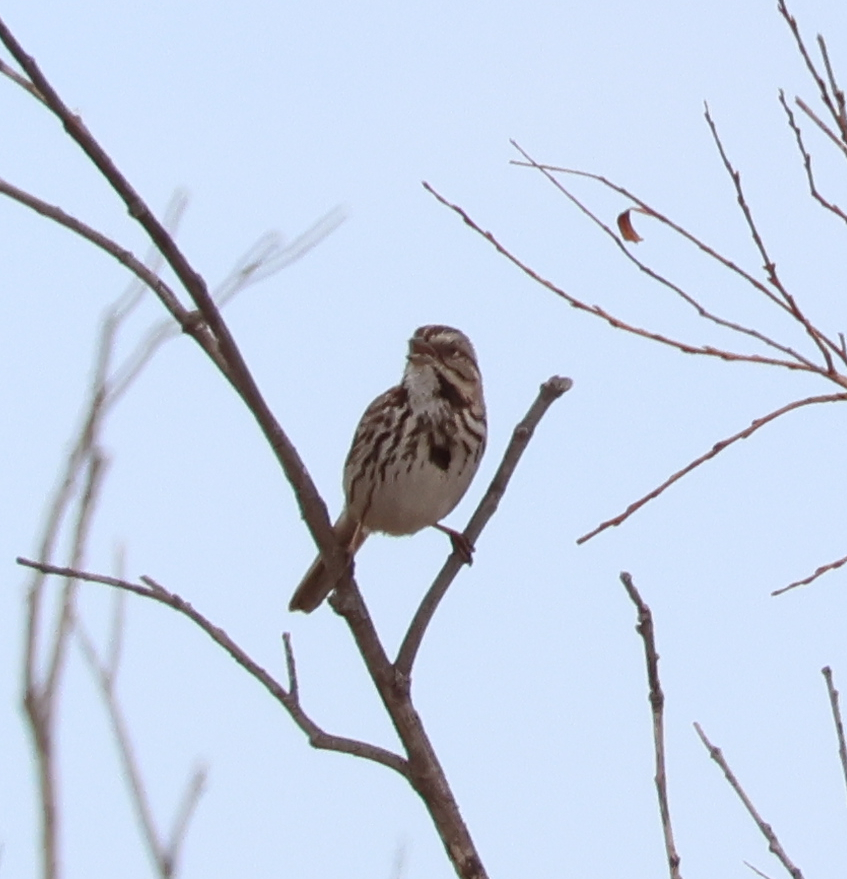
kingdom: Animalia
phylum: Chordata
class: Aves
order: Passeriformes
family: Passerellidae
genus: Melospiza
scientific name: Melospiza melodia
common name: Song sparrow
